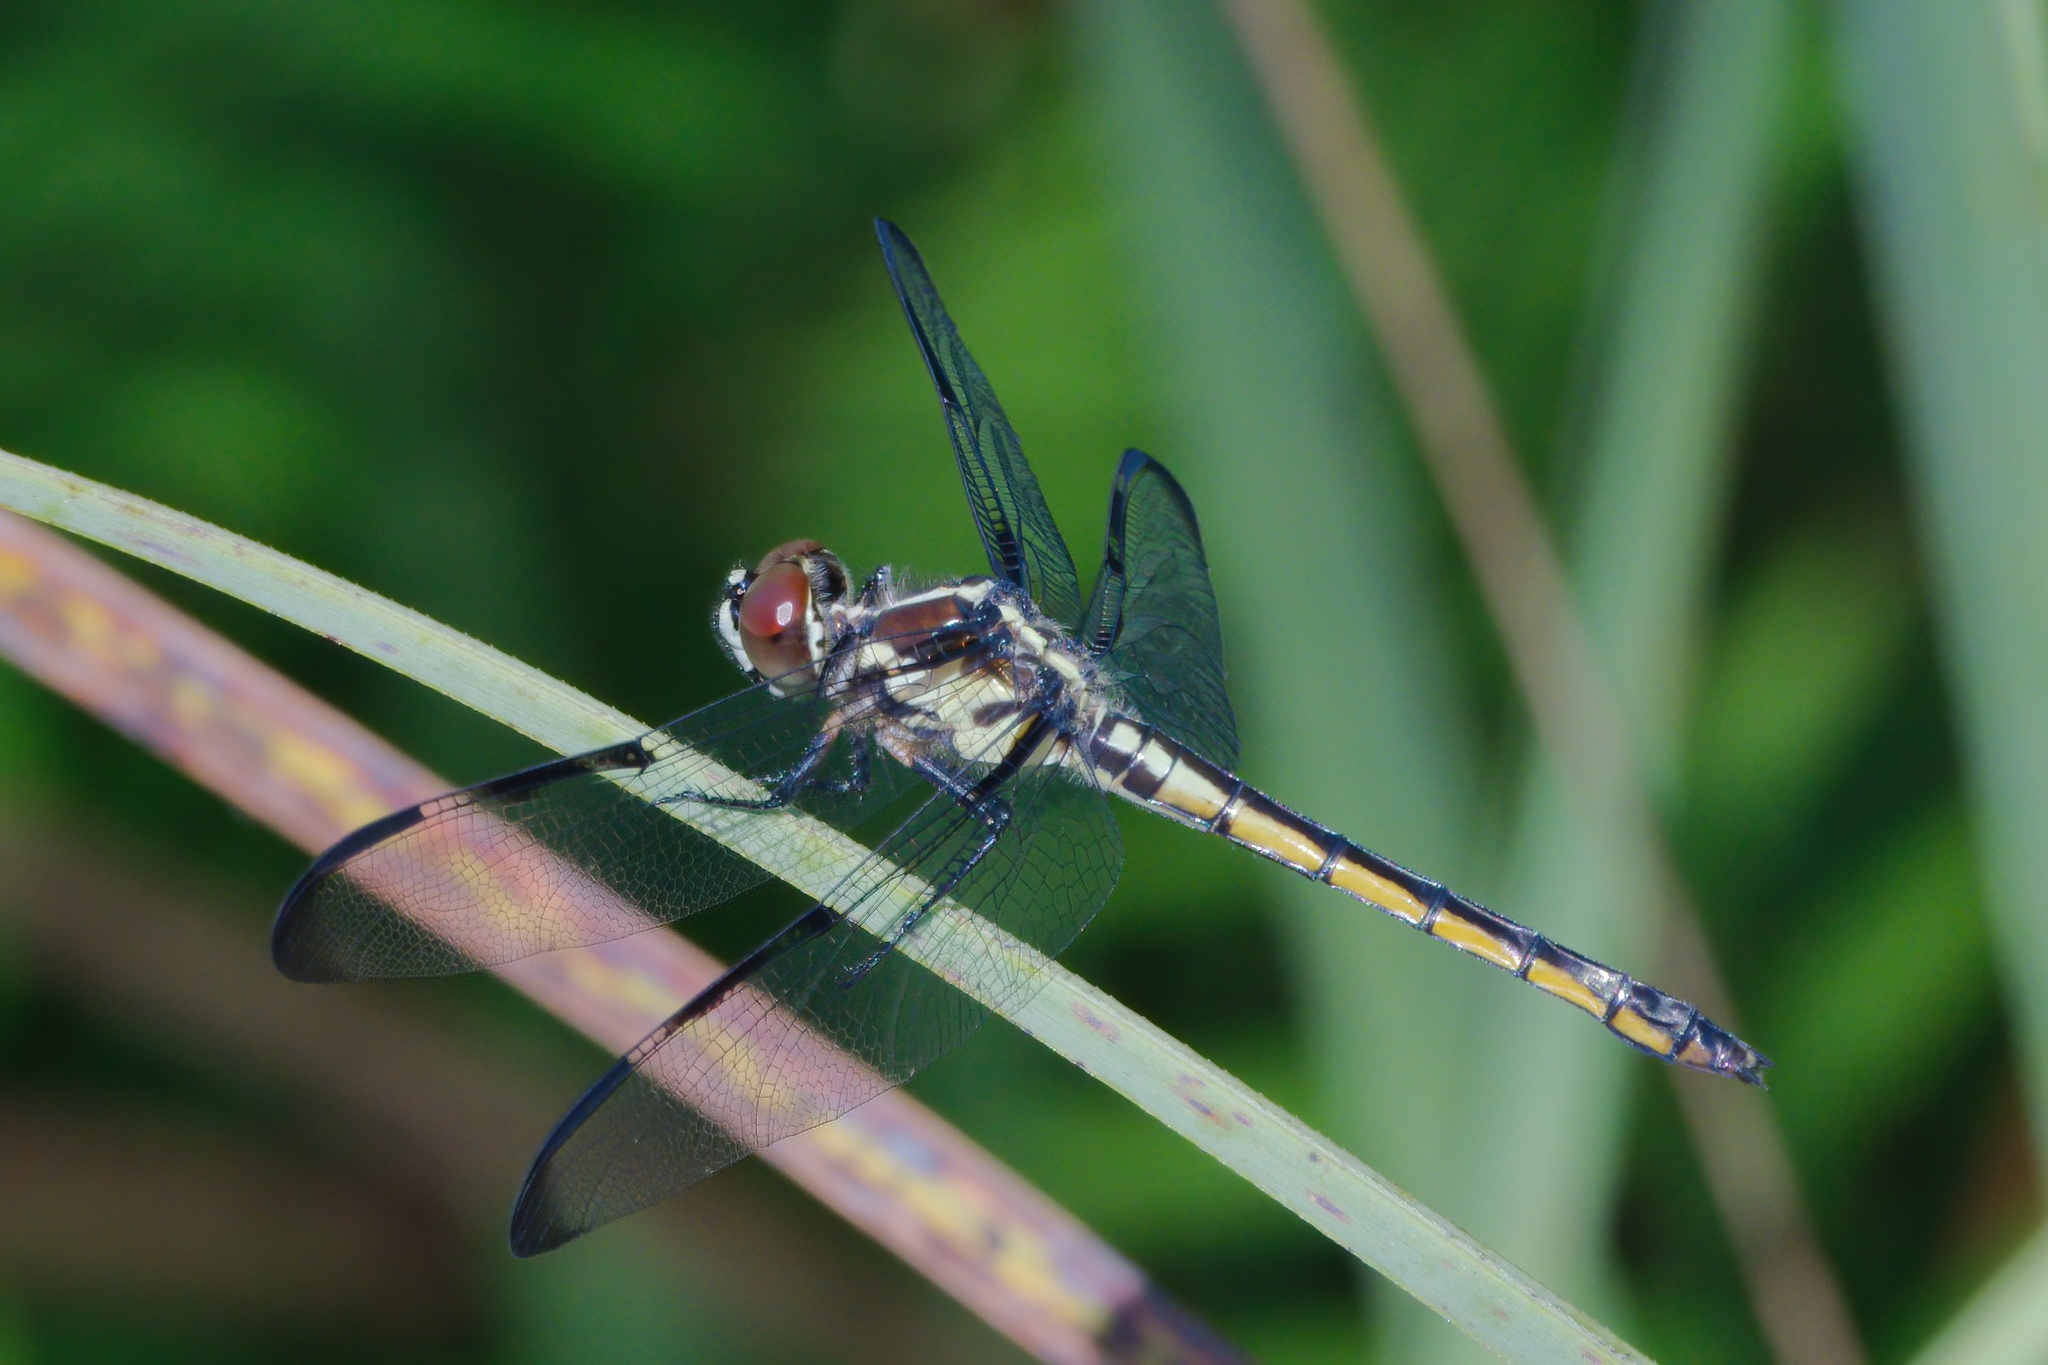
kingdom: Animalia
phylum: Arthropoda
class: Insecta
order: Odonata
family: Libellulidae
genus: Libellula
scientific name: Libellula axilena
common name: Bar-winged skimmer
